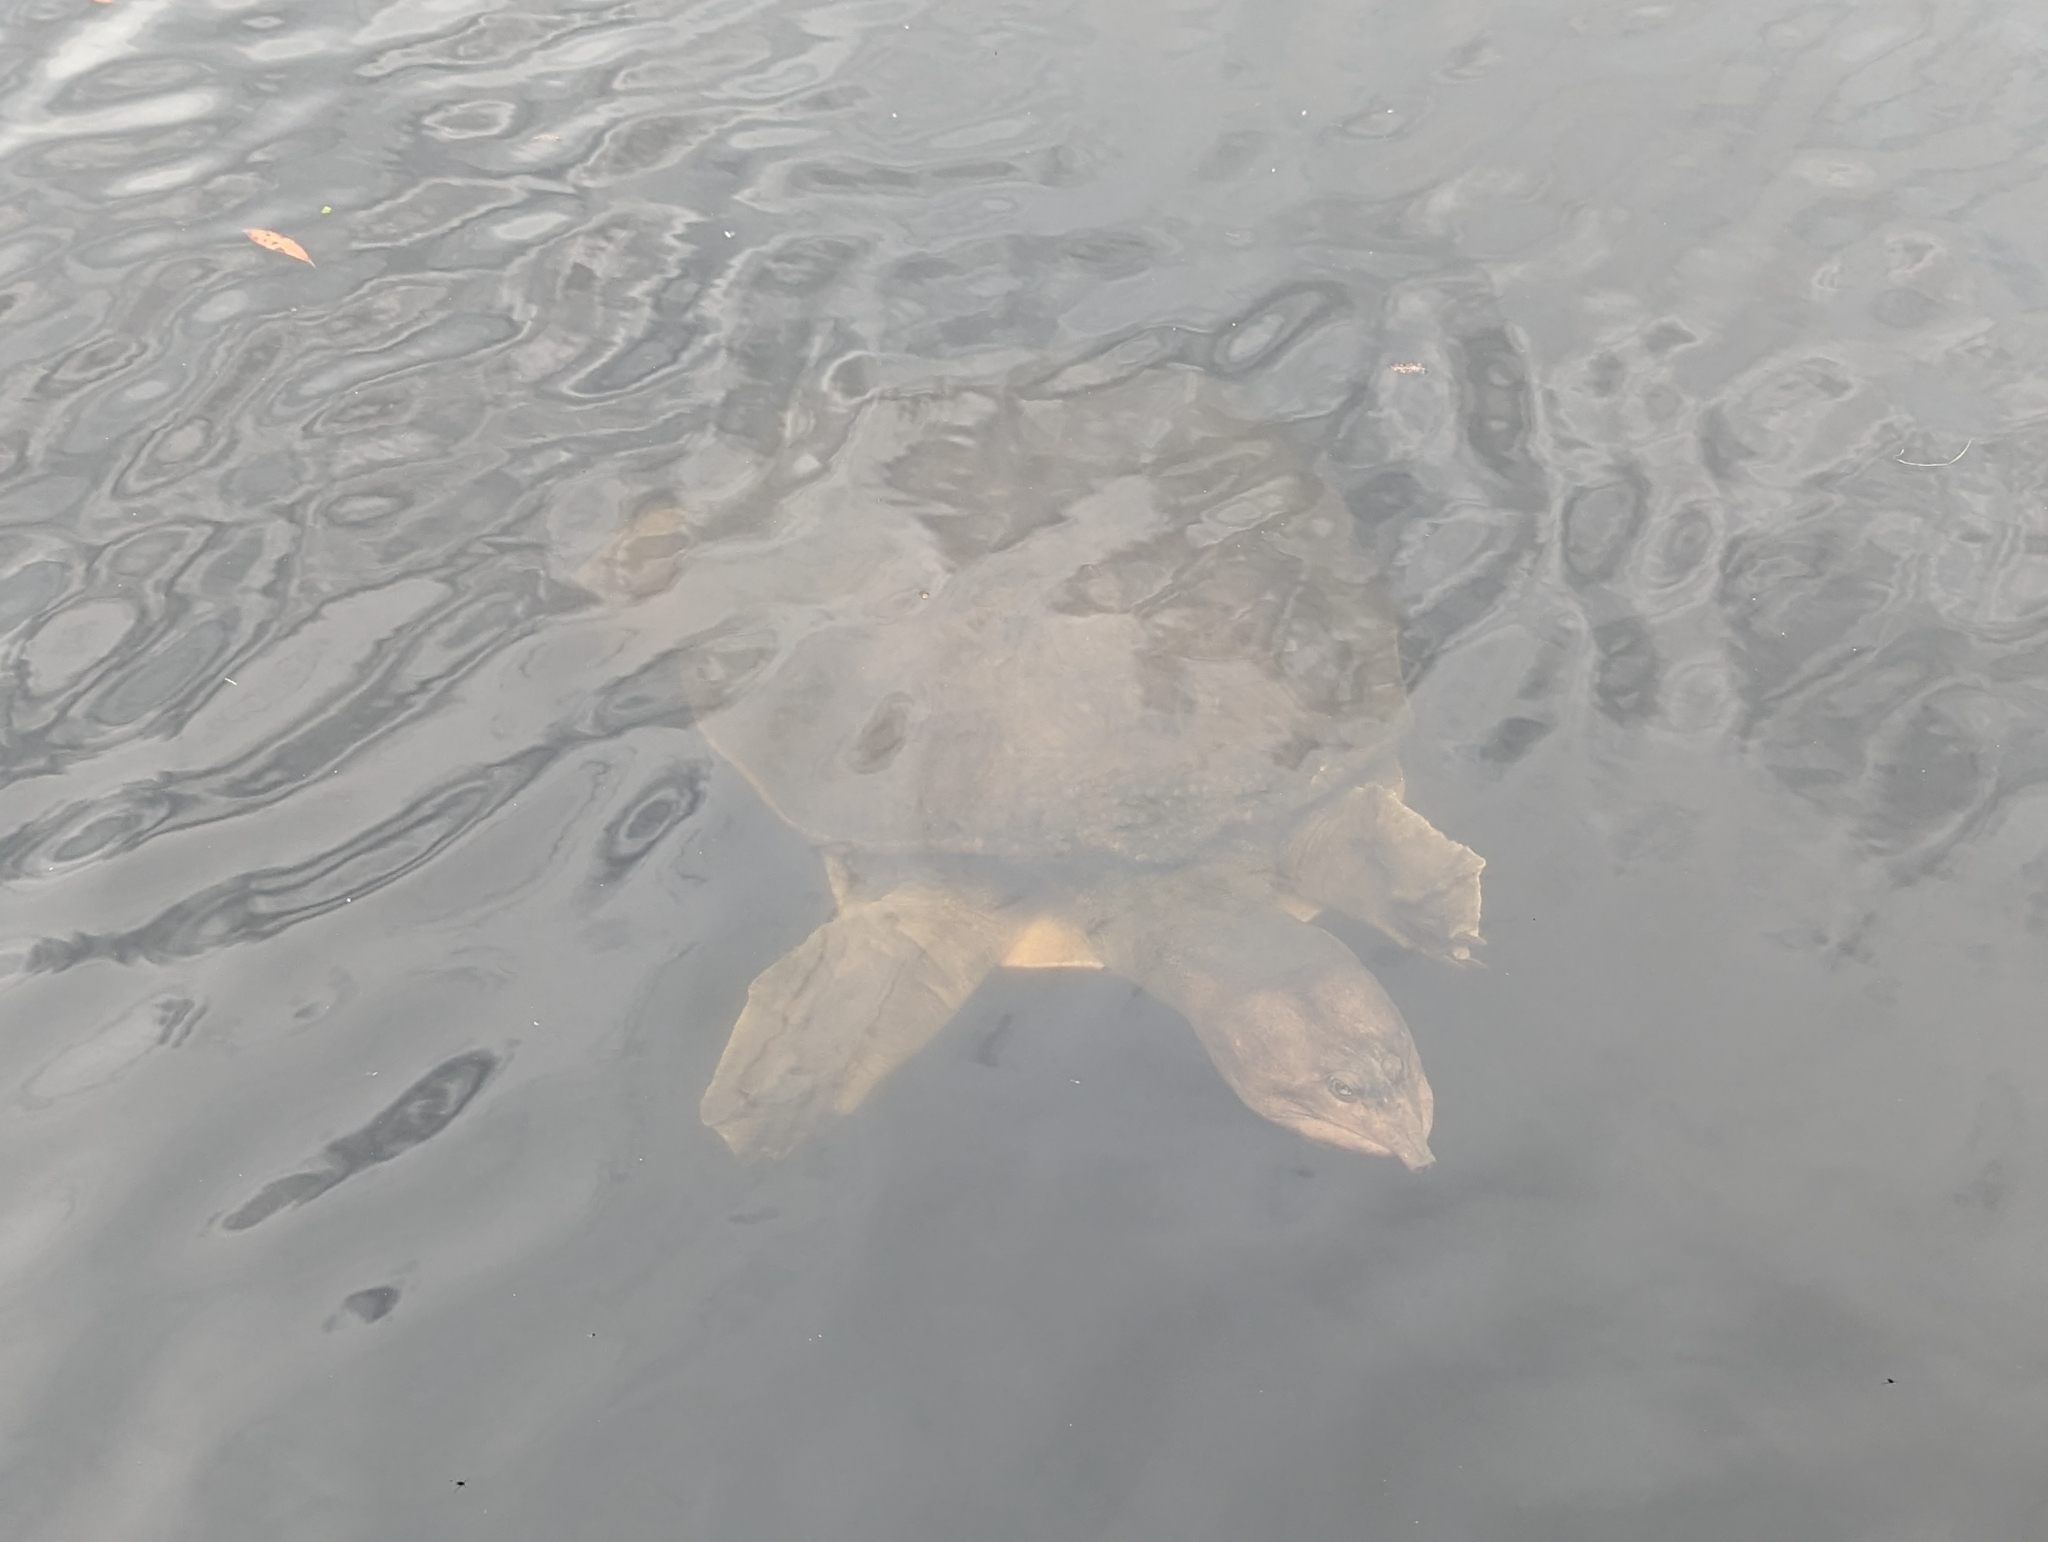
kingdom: Animalia
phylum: Chordata
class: Testudines
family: Trionychidae
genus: Apalone
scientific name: Apalone ferox
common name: Florida softshell turtle
